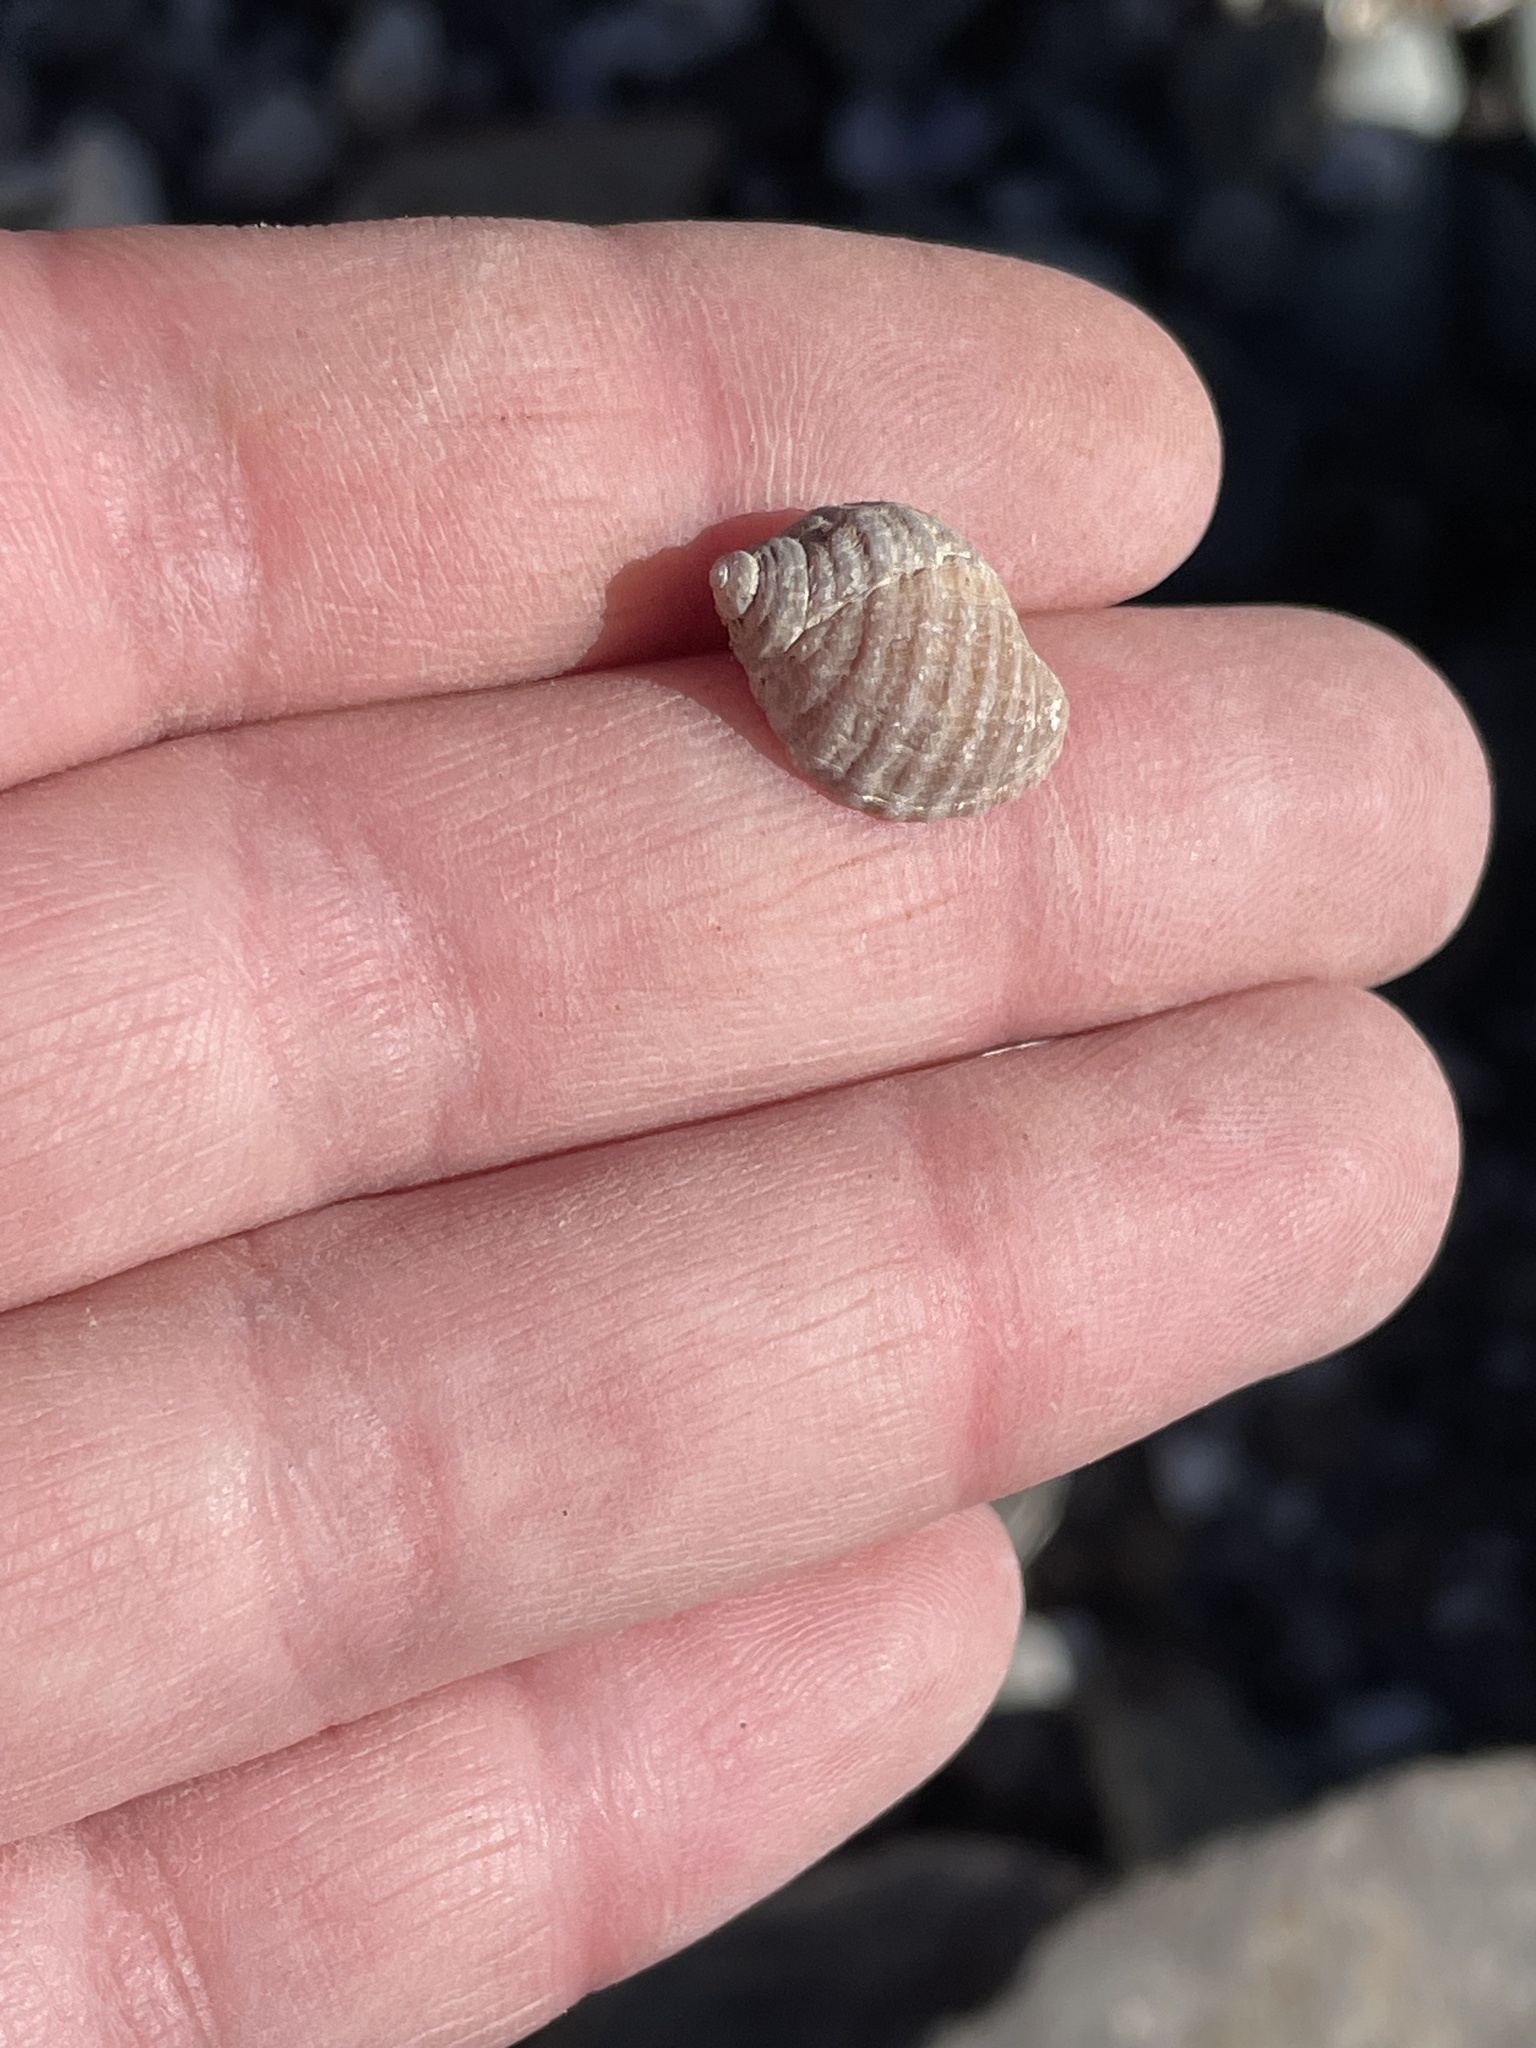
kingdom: Animalia
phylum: Mollusca
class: Gastropoda
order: Neogastropoda
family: Muricidae
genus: Nucella
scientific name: Nucella lapillus
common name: Dog whelk
